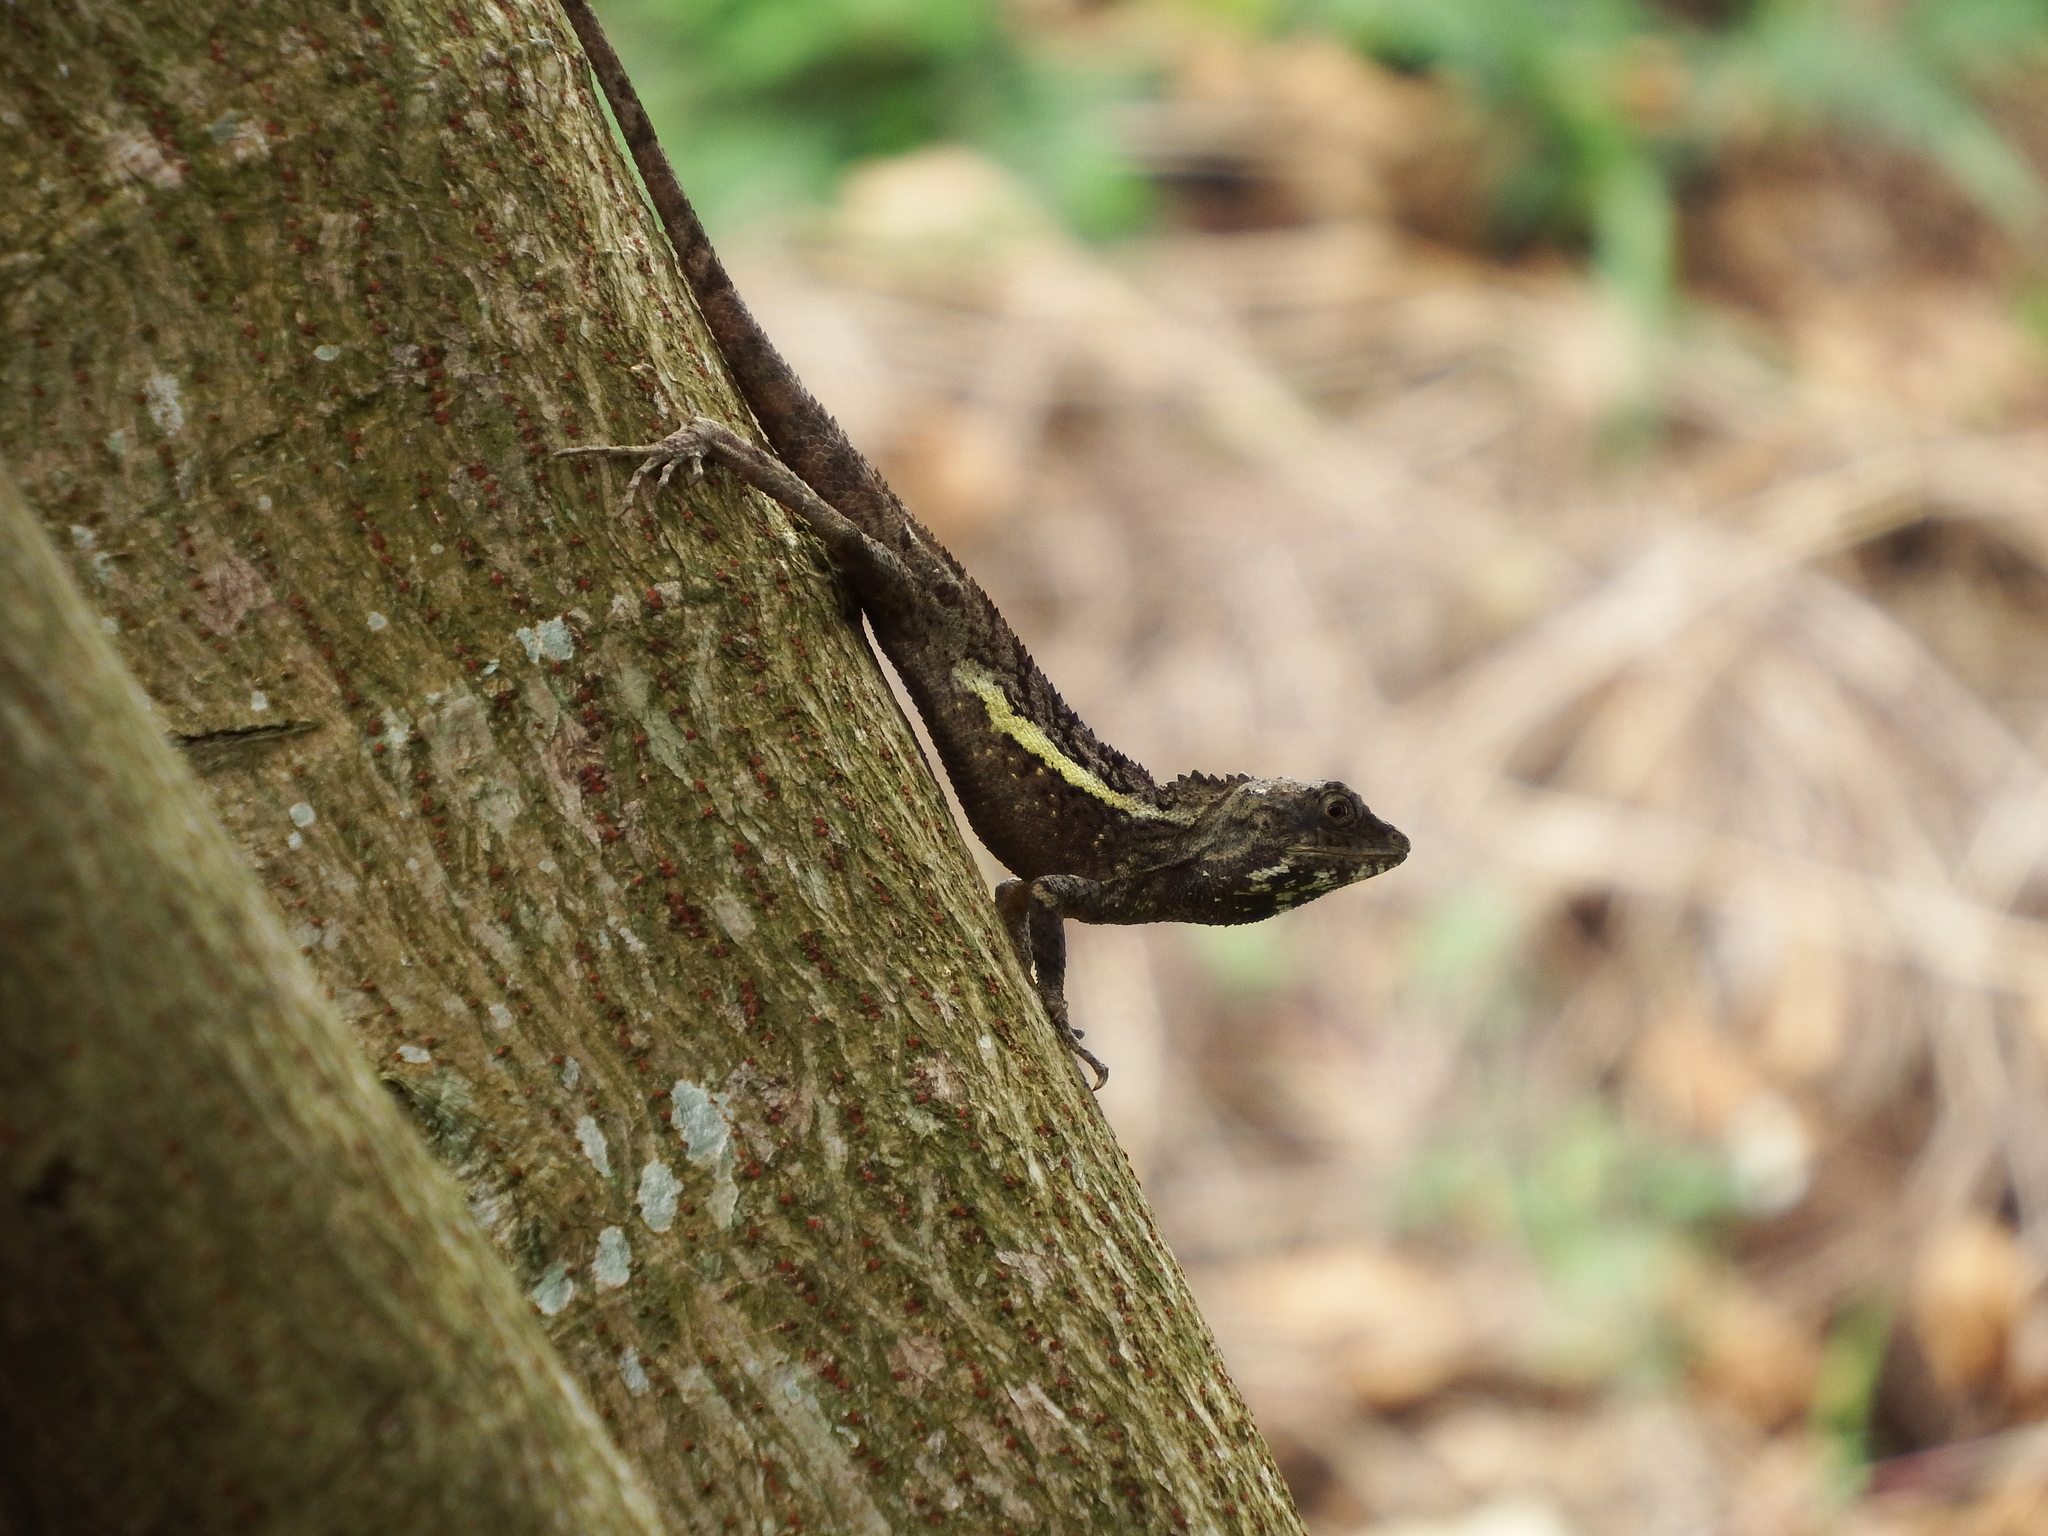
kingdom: Animalia
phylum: Chordata
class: Squamata
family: Agamidae
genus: Diploderma
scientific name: Diploderma swinhonis
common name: Taiwan japalure
